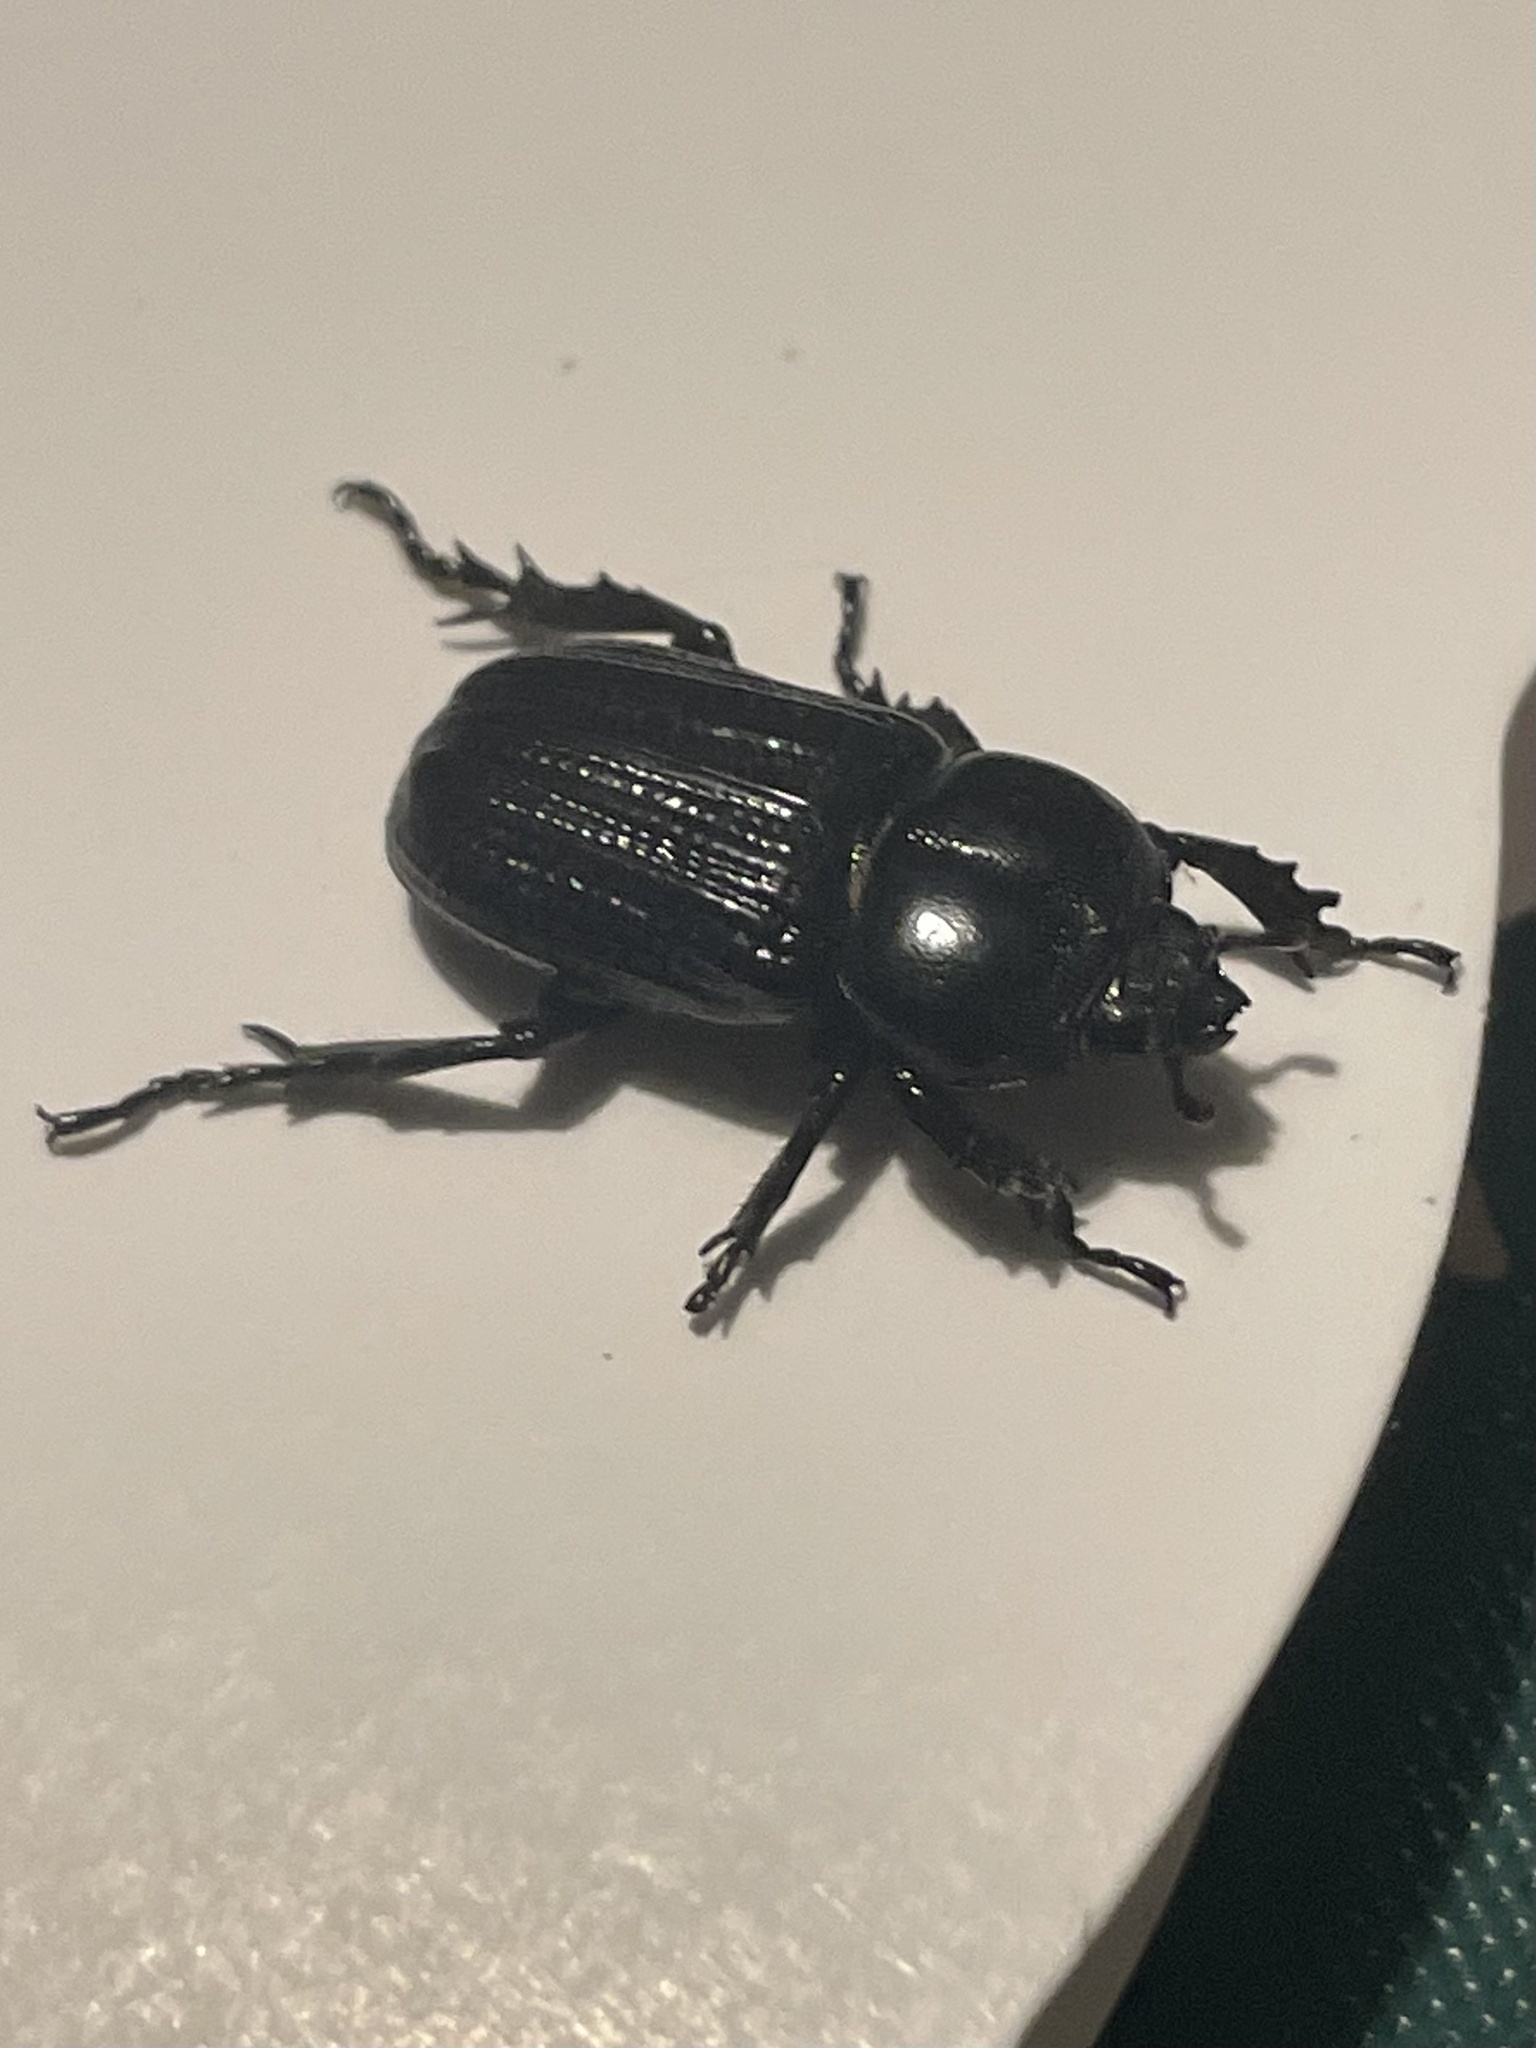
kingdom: Animalia
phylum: Arthropoda
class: Insecta
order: Coleoptera
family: Scarabaeidae
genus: Phileurus
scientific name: Phileurus valgus
